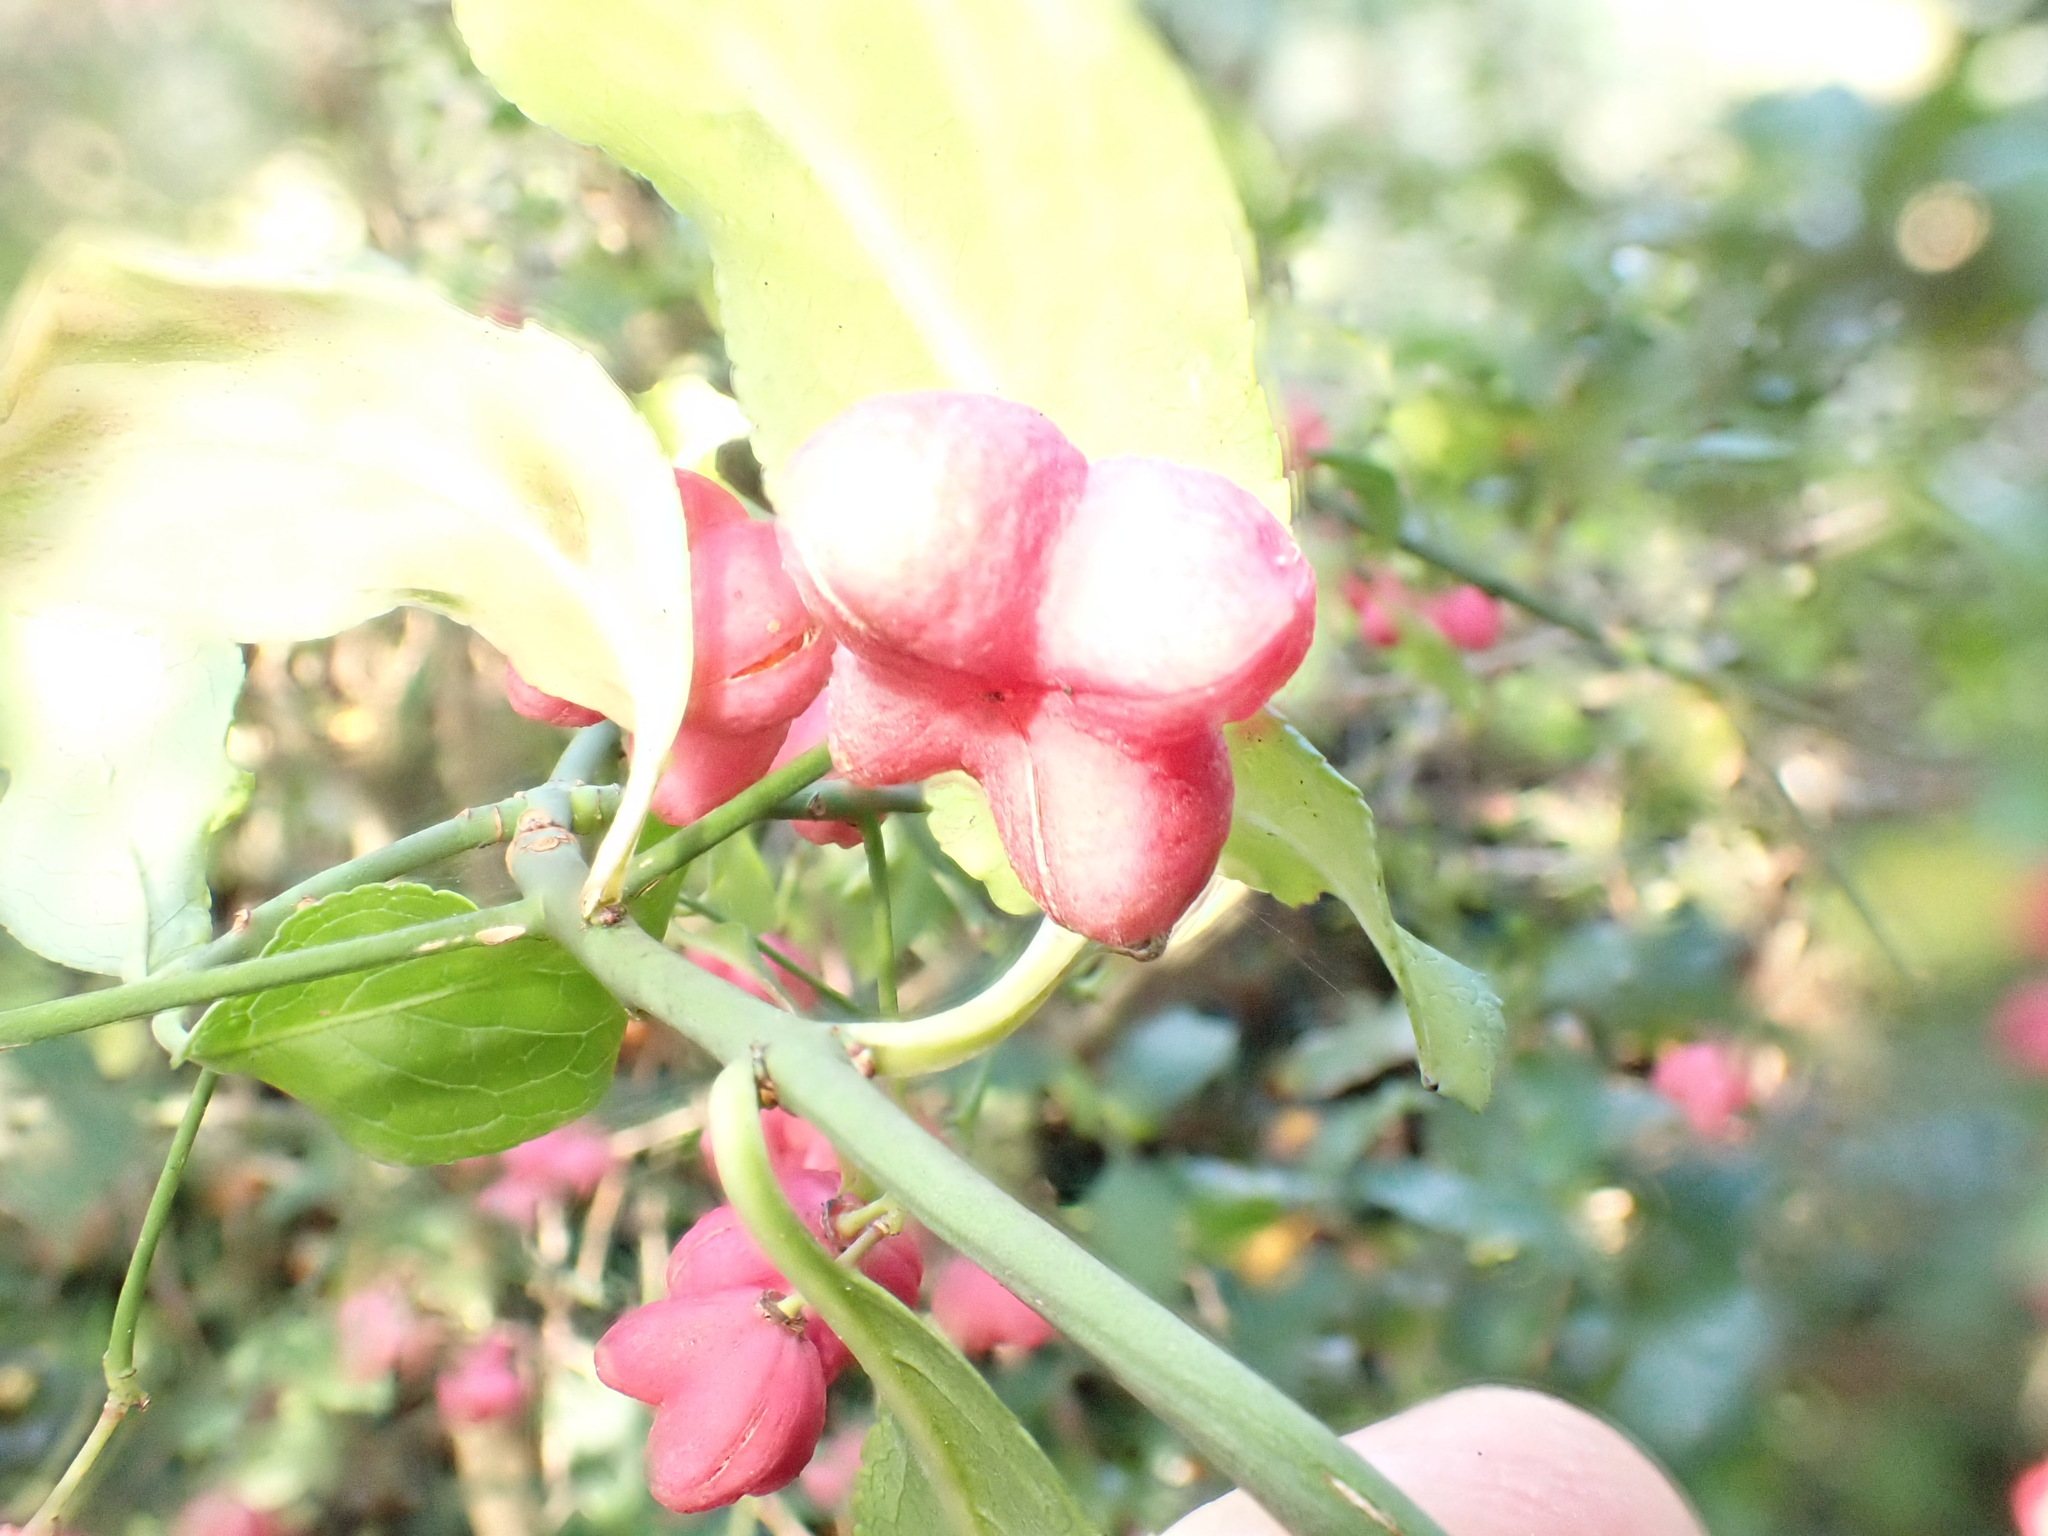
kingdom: Plantae
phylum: Tracheophyta
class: Magnoliopsida
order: Celastrales
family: Celastraceae
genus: Euonymus
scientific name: Euonymus europaeus
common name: Spindle
